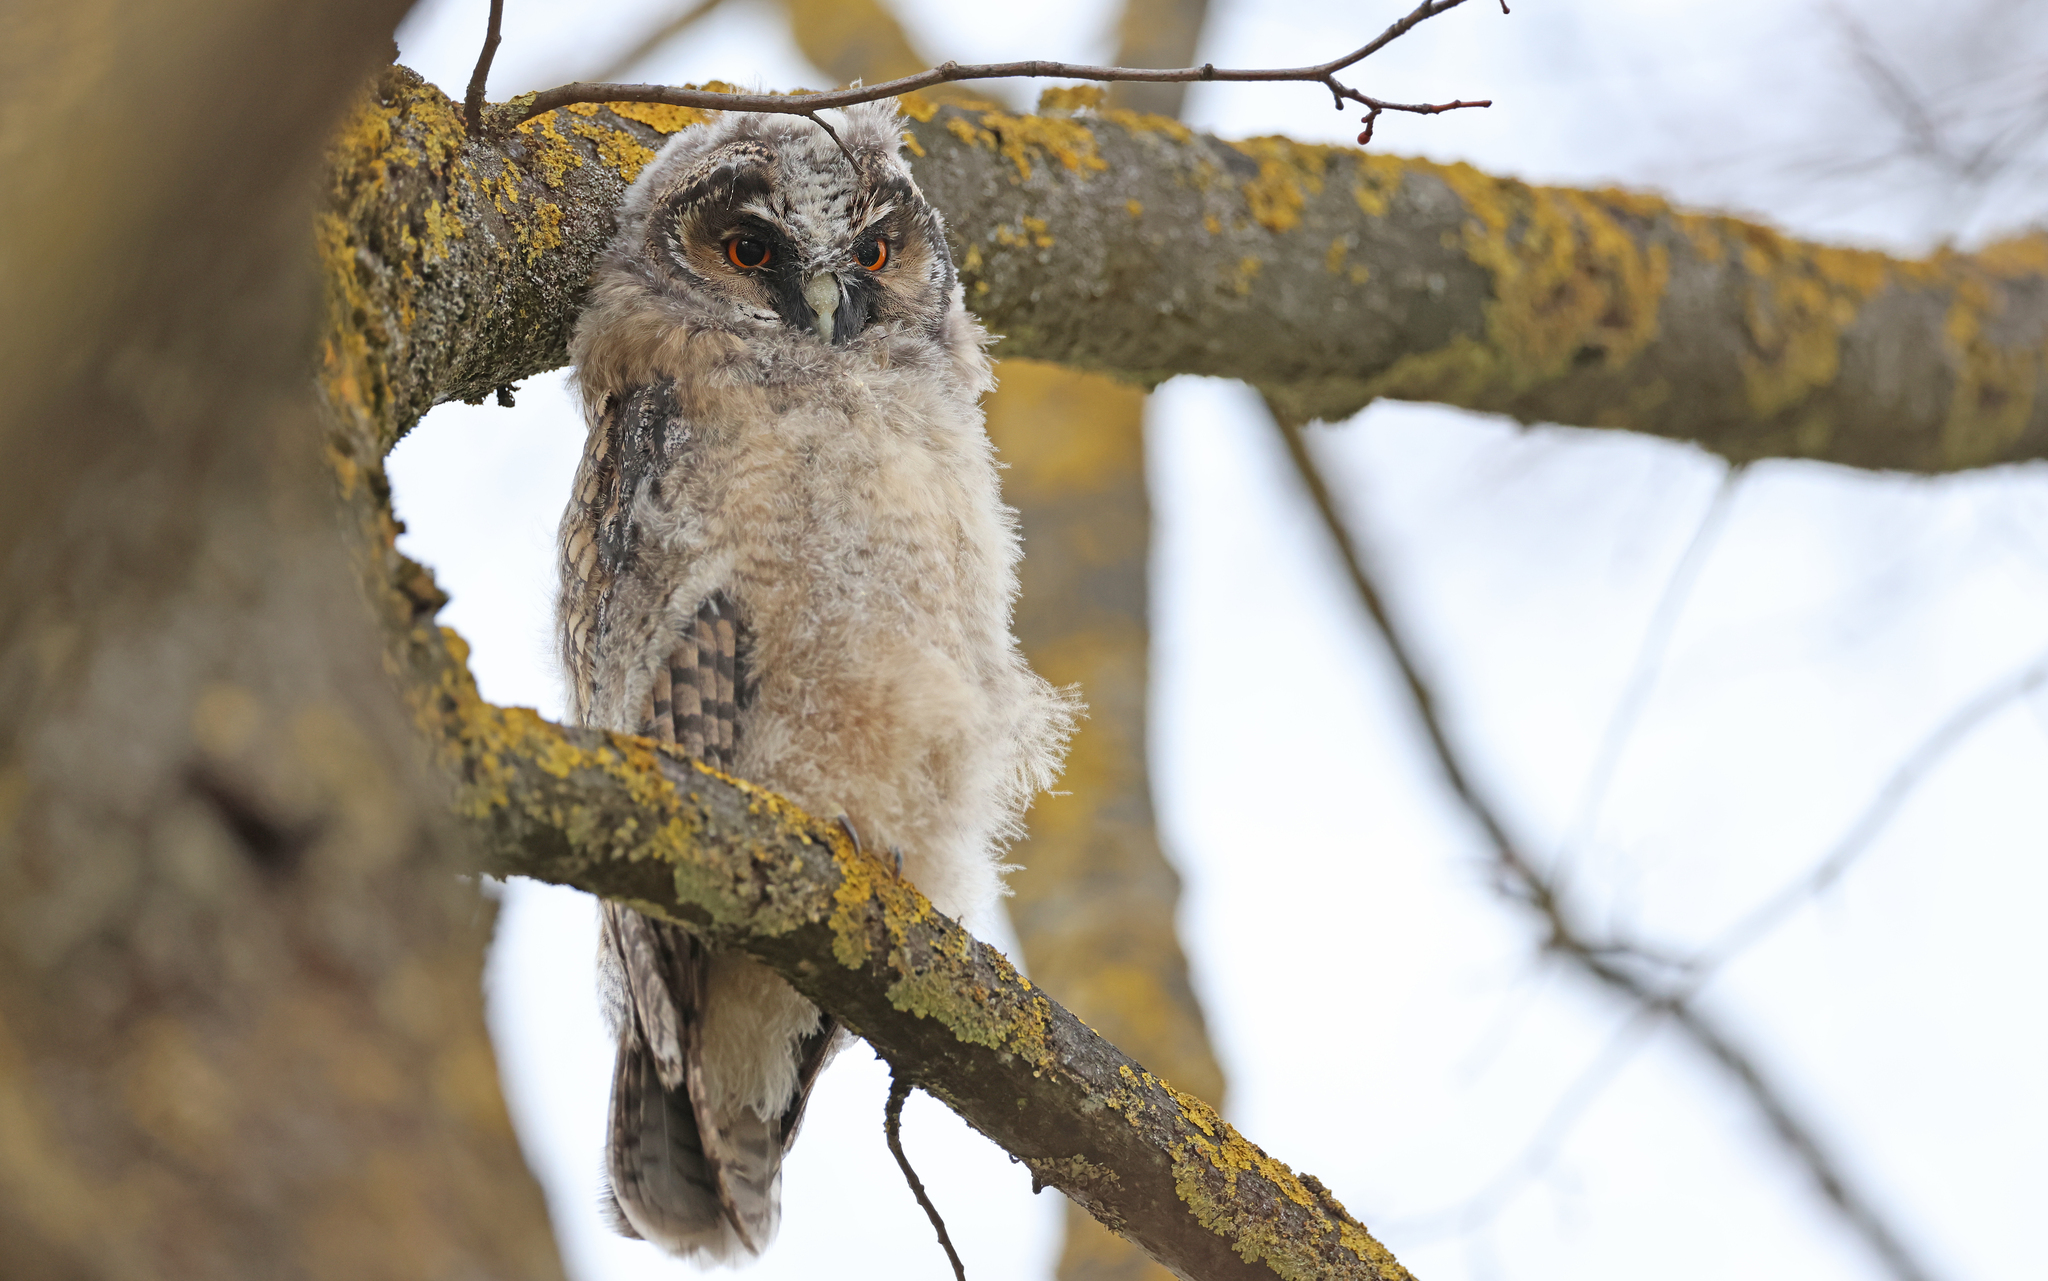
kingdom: Animalia
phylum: Chordata
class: Aves
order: Strigiformes
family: Strigidae
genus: Asio
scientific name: Asio otus
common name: Long-eared owl
